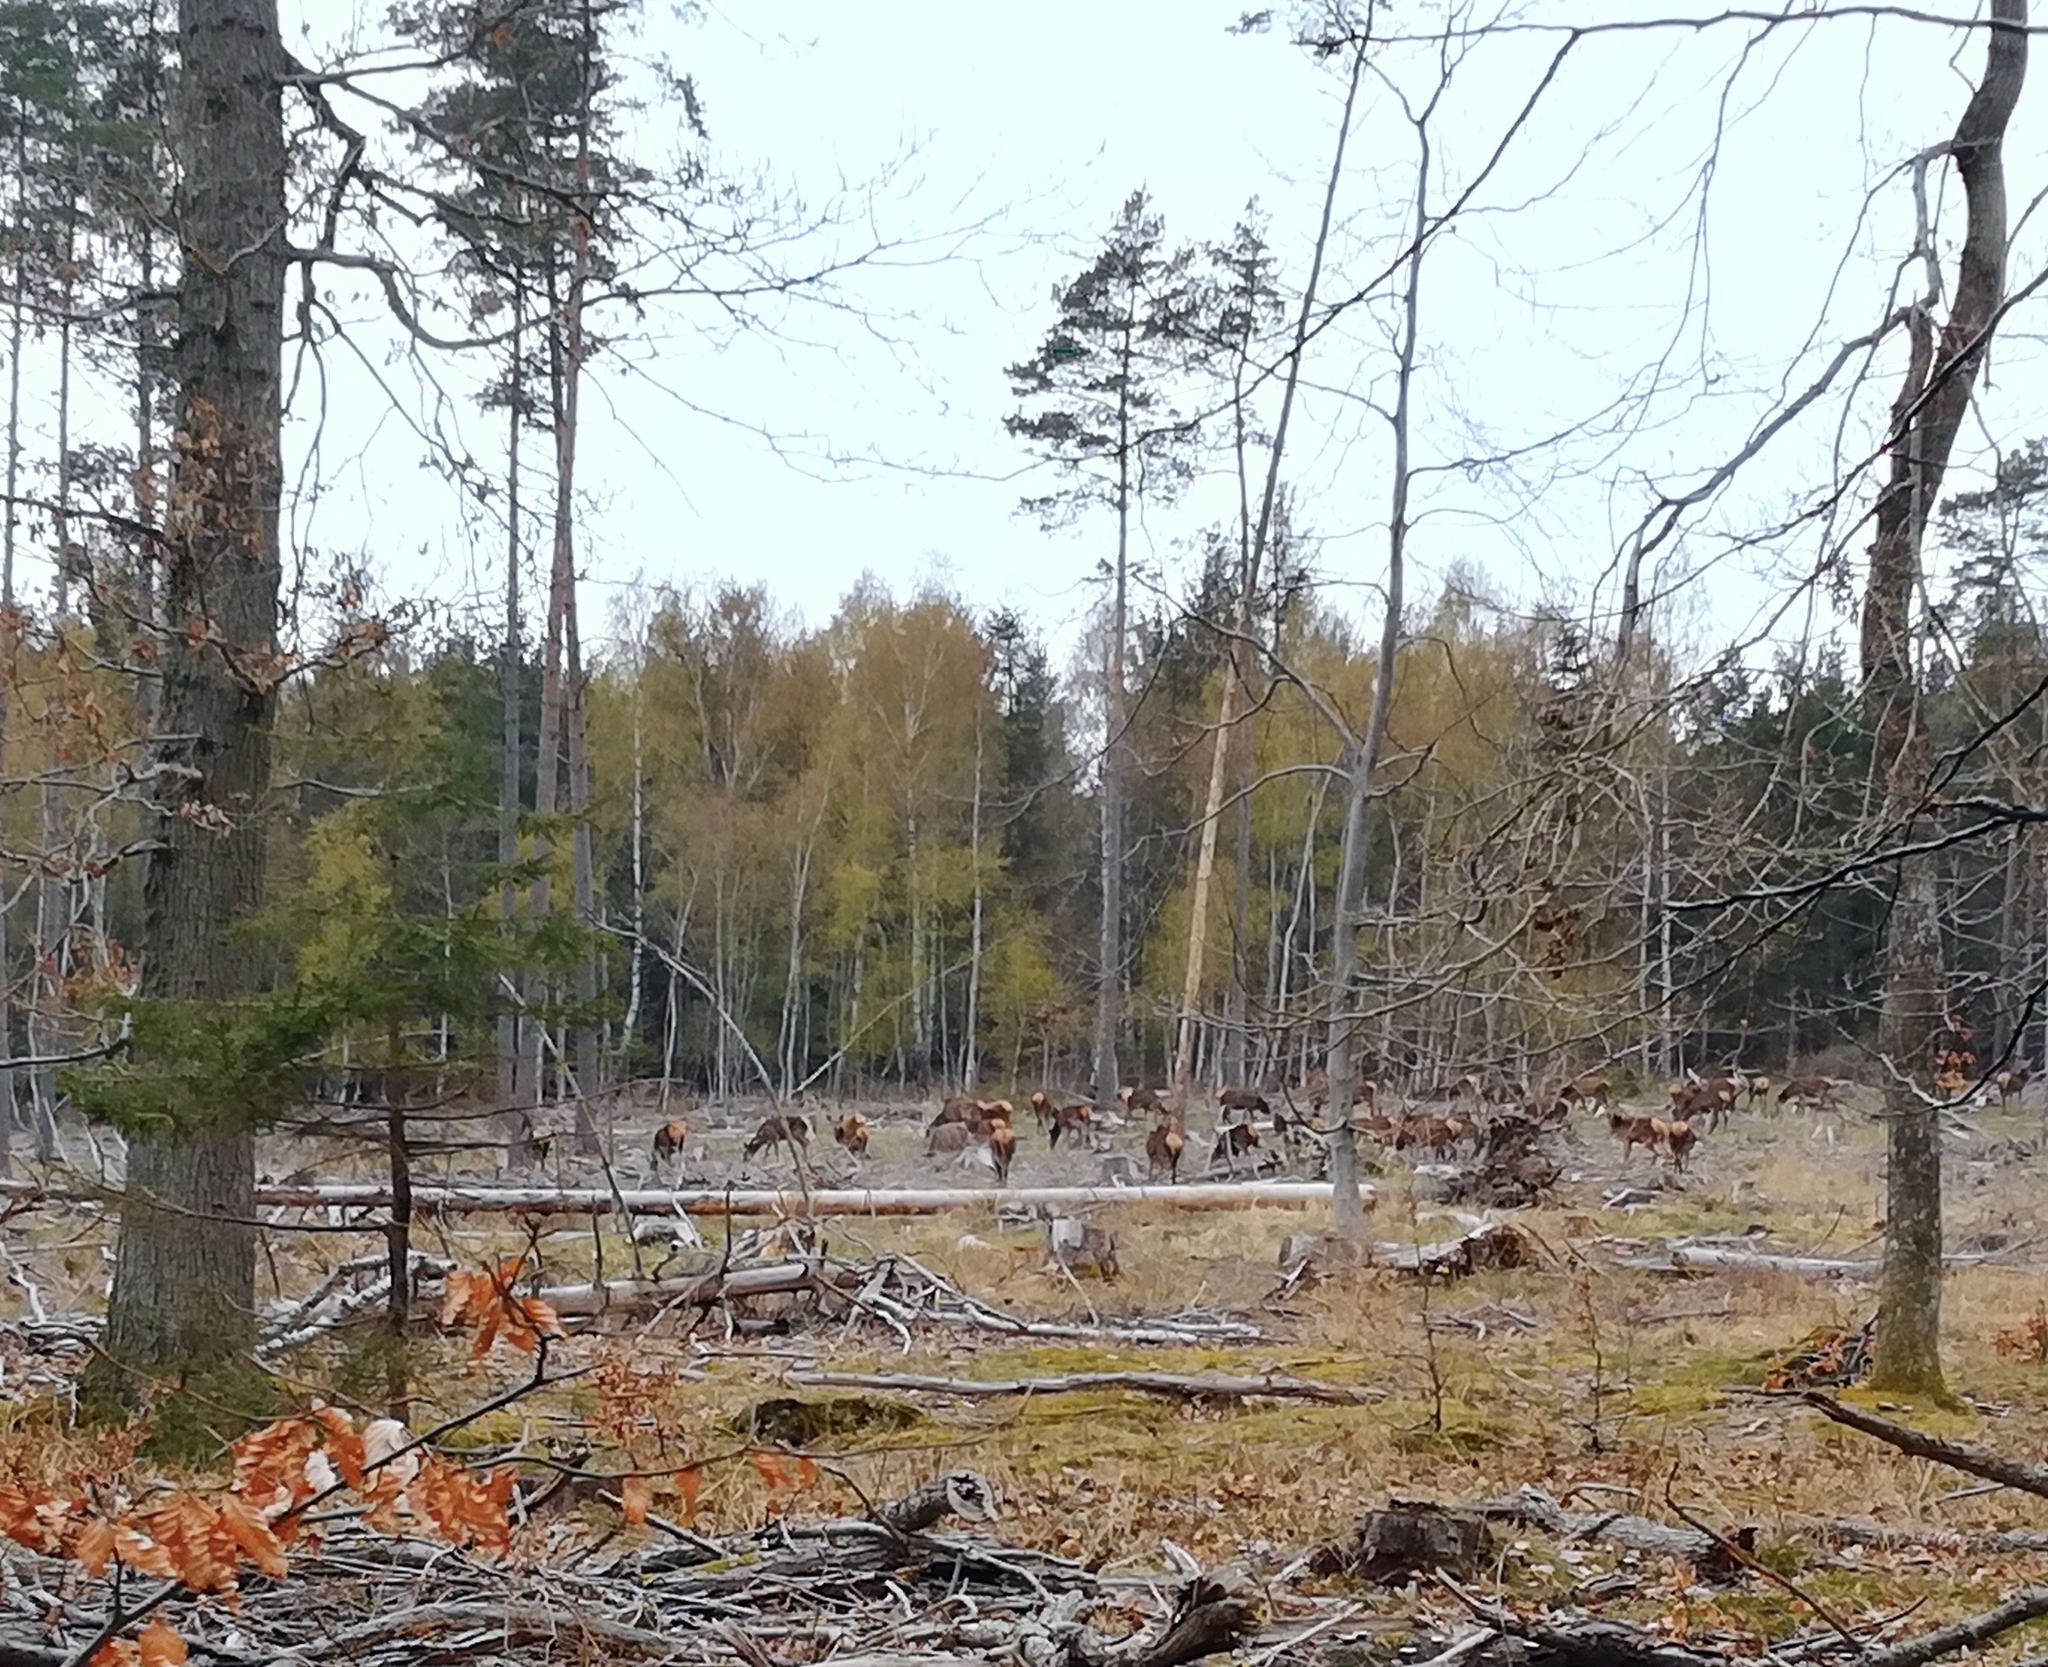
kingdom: Animalia
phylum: Chordata
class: Mammalia
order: Artiodactyla
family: Cervidae
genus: Cervus
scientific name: Cervus elaphus
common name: Red deer
